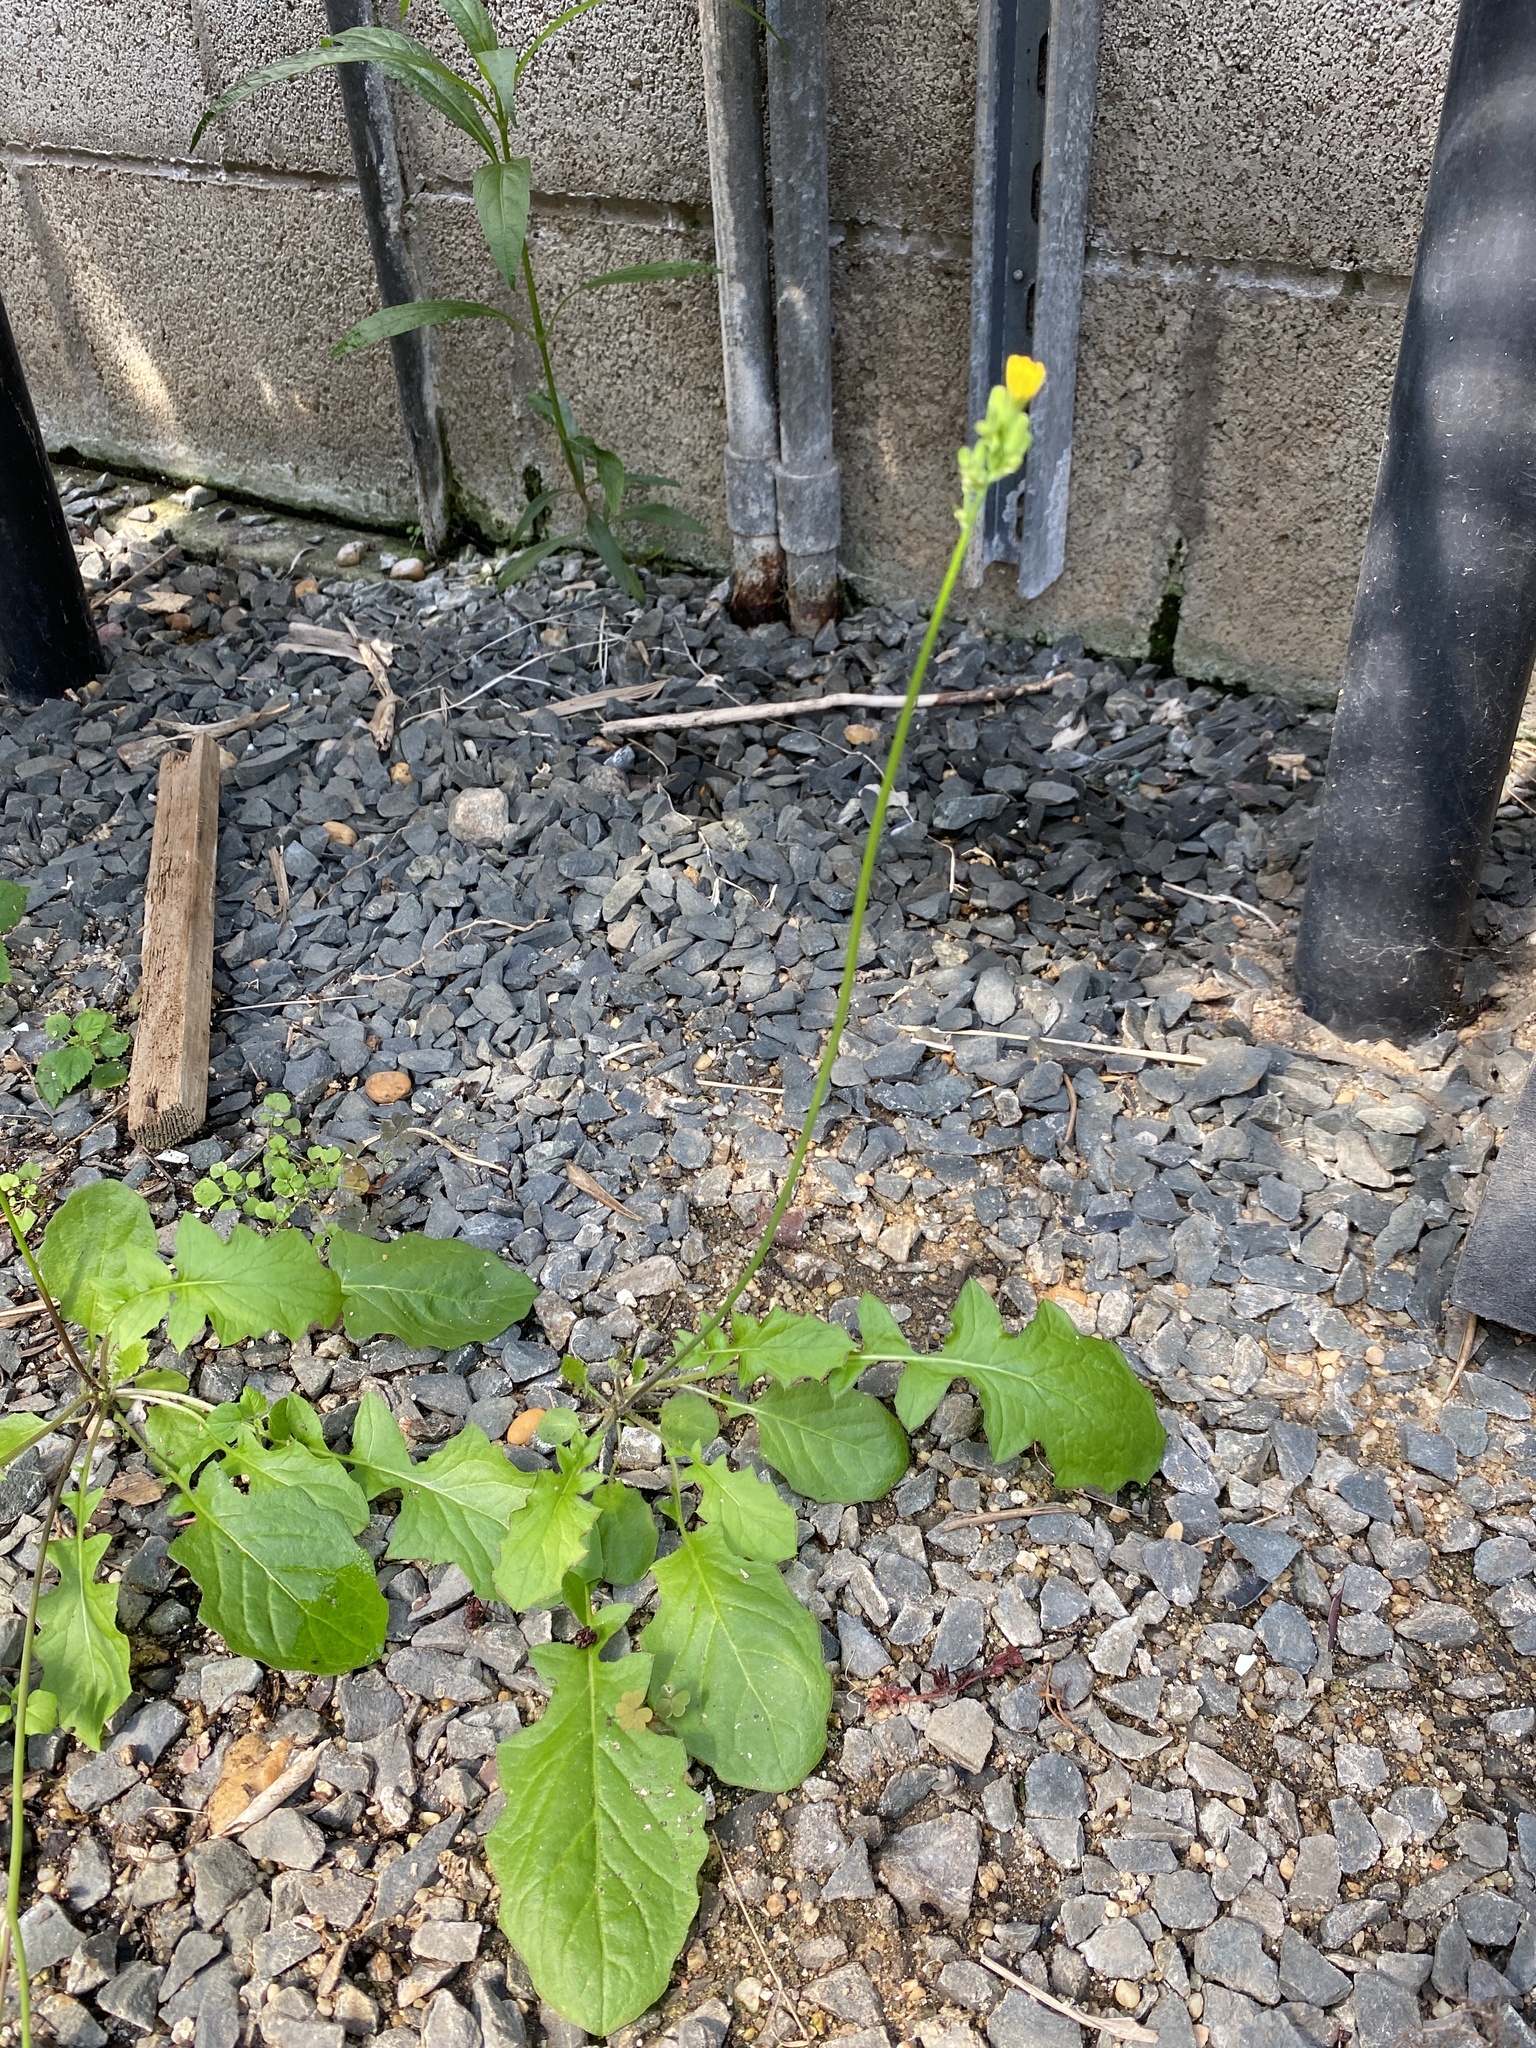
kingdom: Plantae
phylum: Tracheophyta
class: Magnoliopsida
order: Asterales
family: Asteraceae
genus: Youngia
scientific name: Youngia japonica
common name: Oriental false hawksbeard
